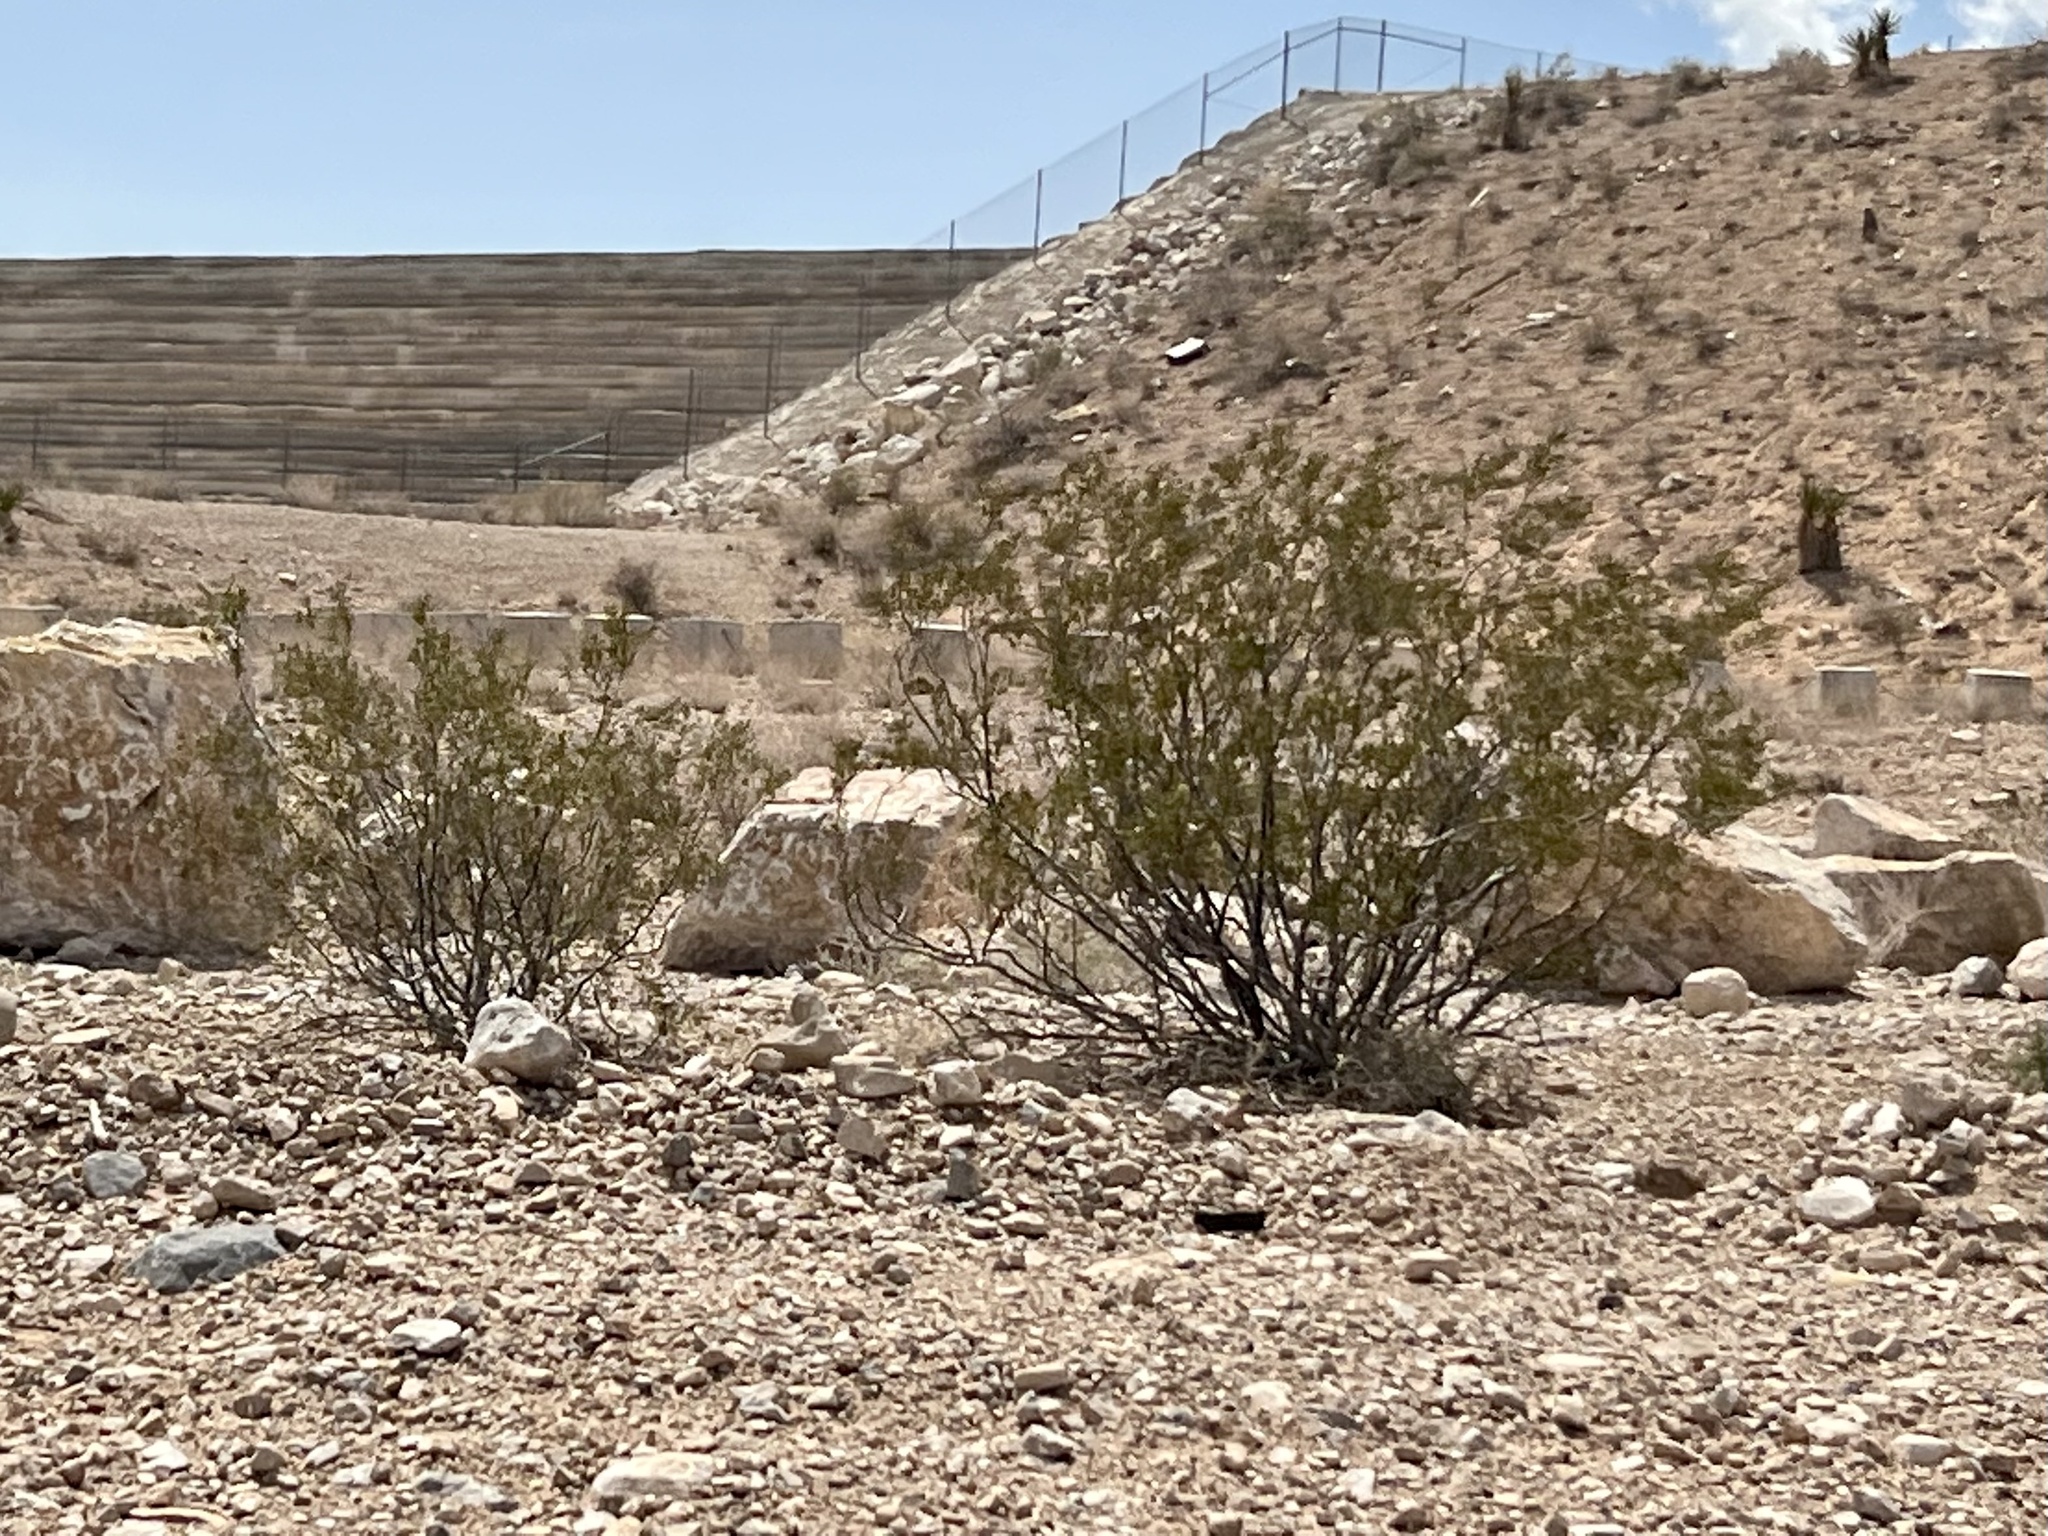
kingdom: Plantae
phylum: Tracheophyta
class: Magnoliopsida
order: Zygophyllales
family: Zygophyllaceae
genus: Larrea
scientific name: Larrea tridentata
